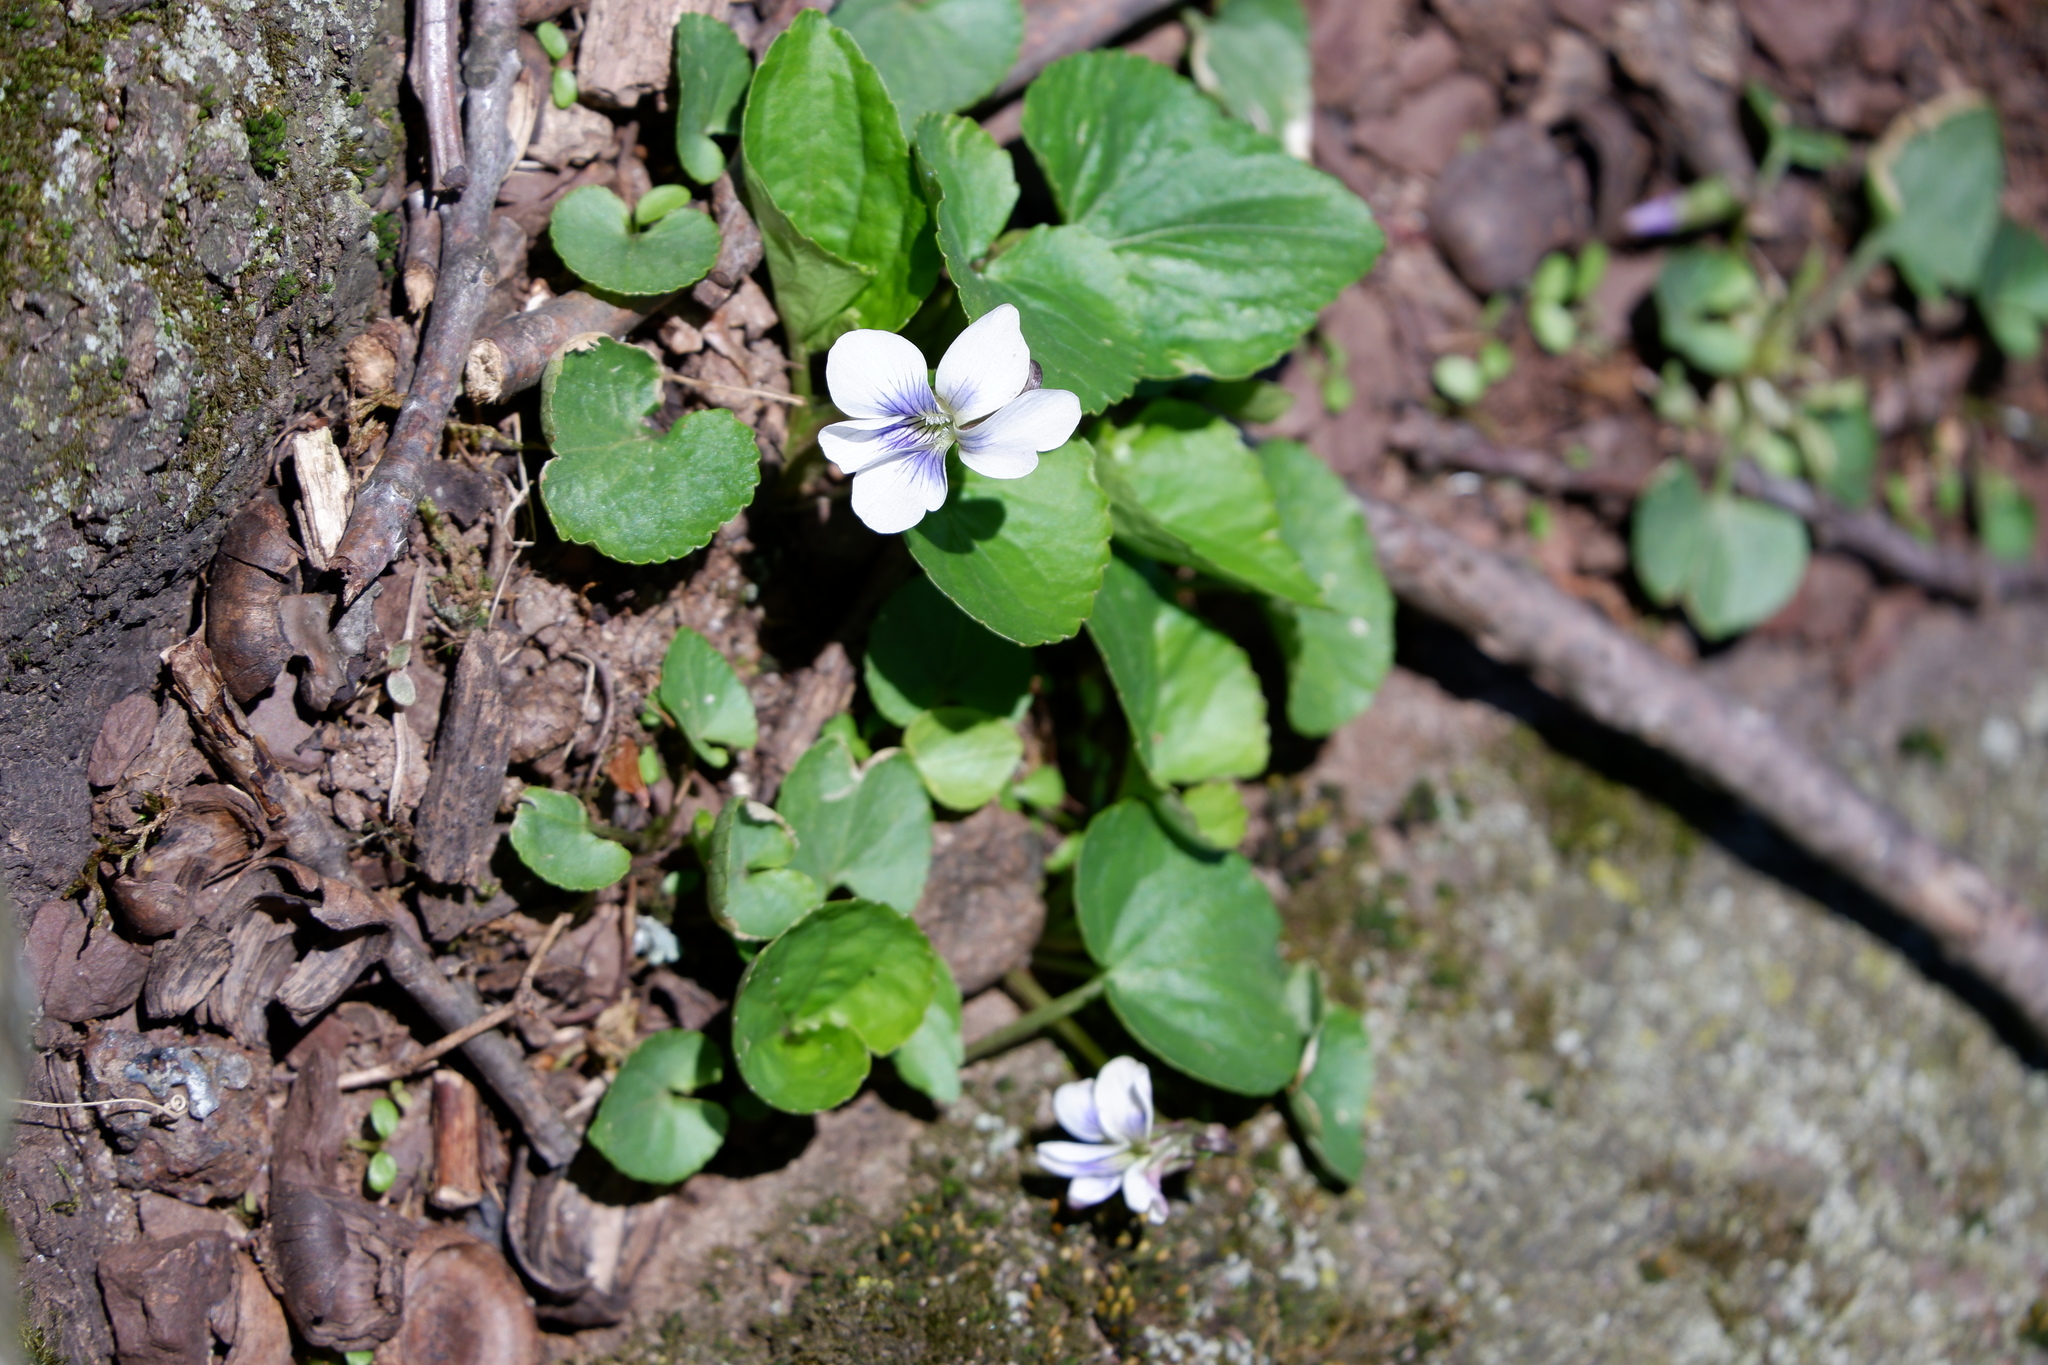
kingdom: Plantae
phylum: Tracheophyta
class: Magnoliopsida
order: Malpighiales
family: Violaceae
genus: Viola
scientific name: Viola sororia
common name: Dooryard violet
